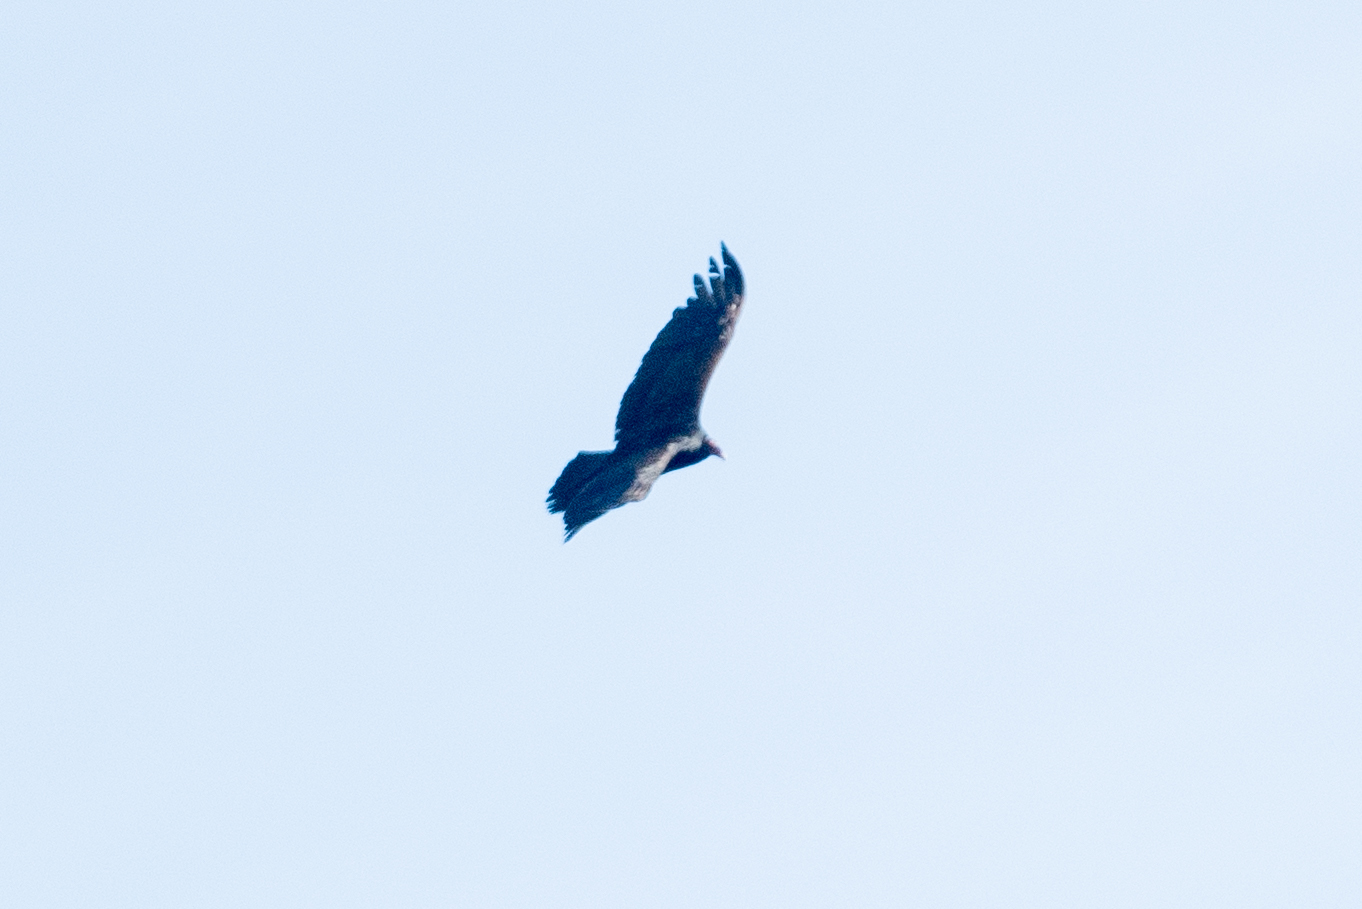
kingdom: Animalia
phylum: Chordata
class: Aves
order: Accipitriformes
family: Cathartidae
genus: Cathartes
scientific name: Cathartes aura
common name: Turkey vulture
